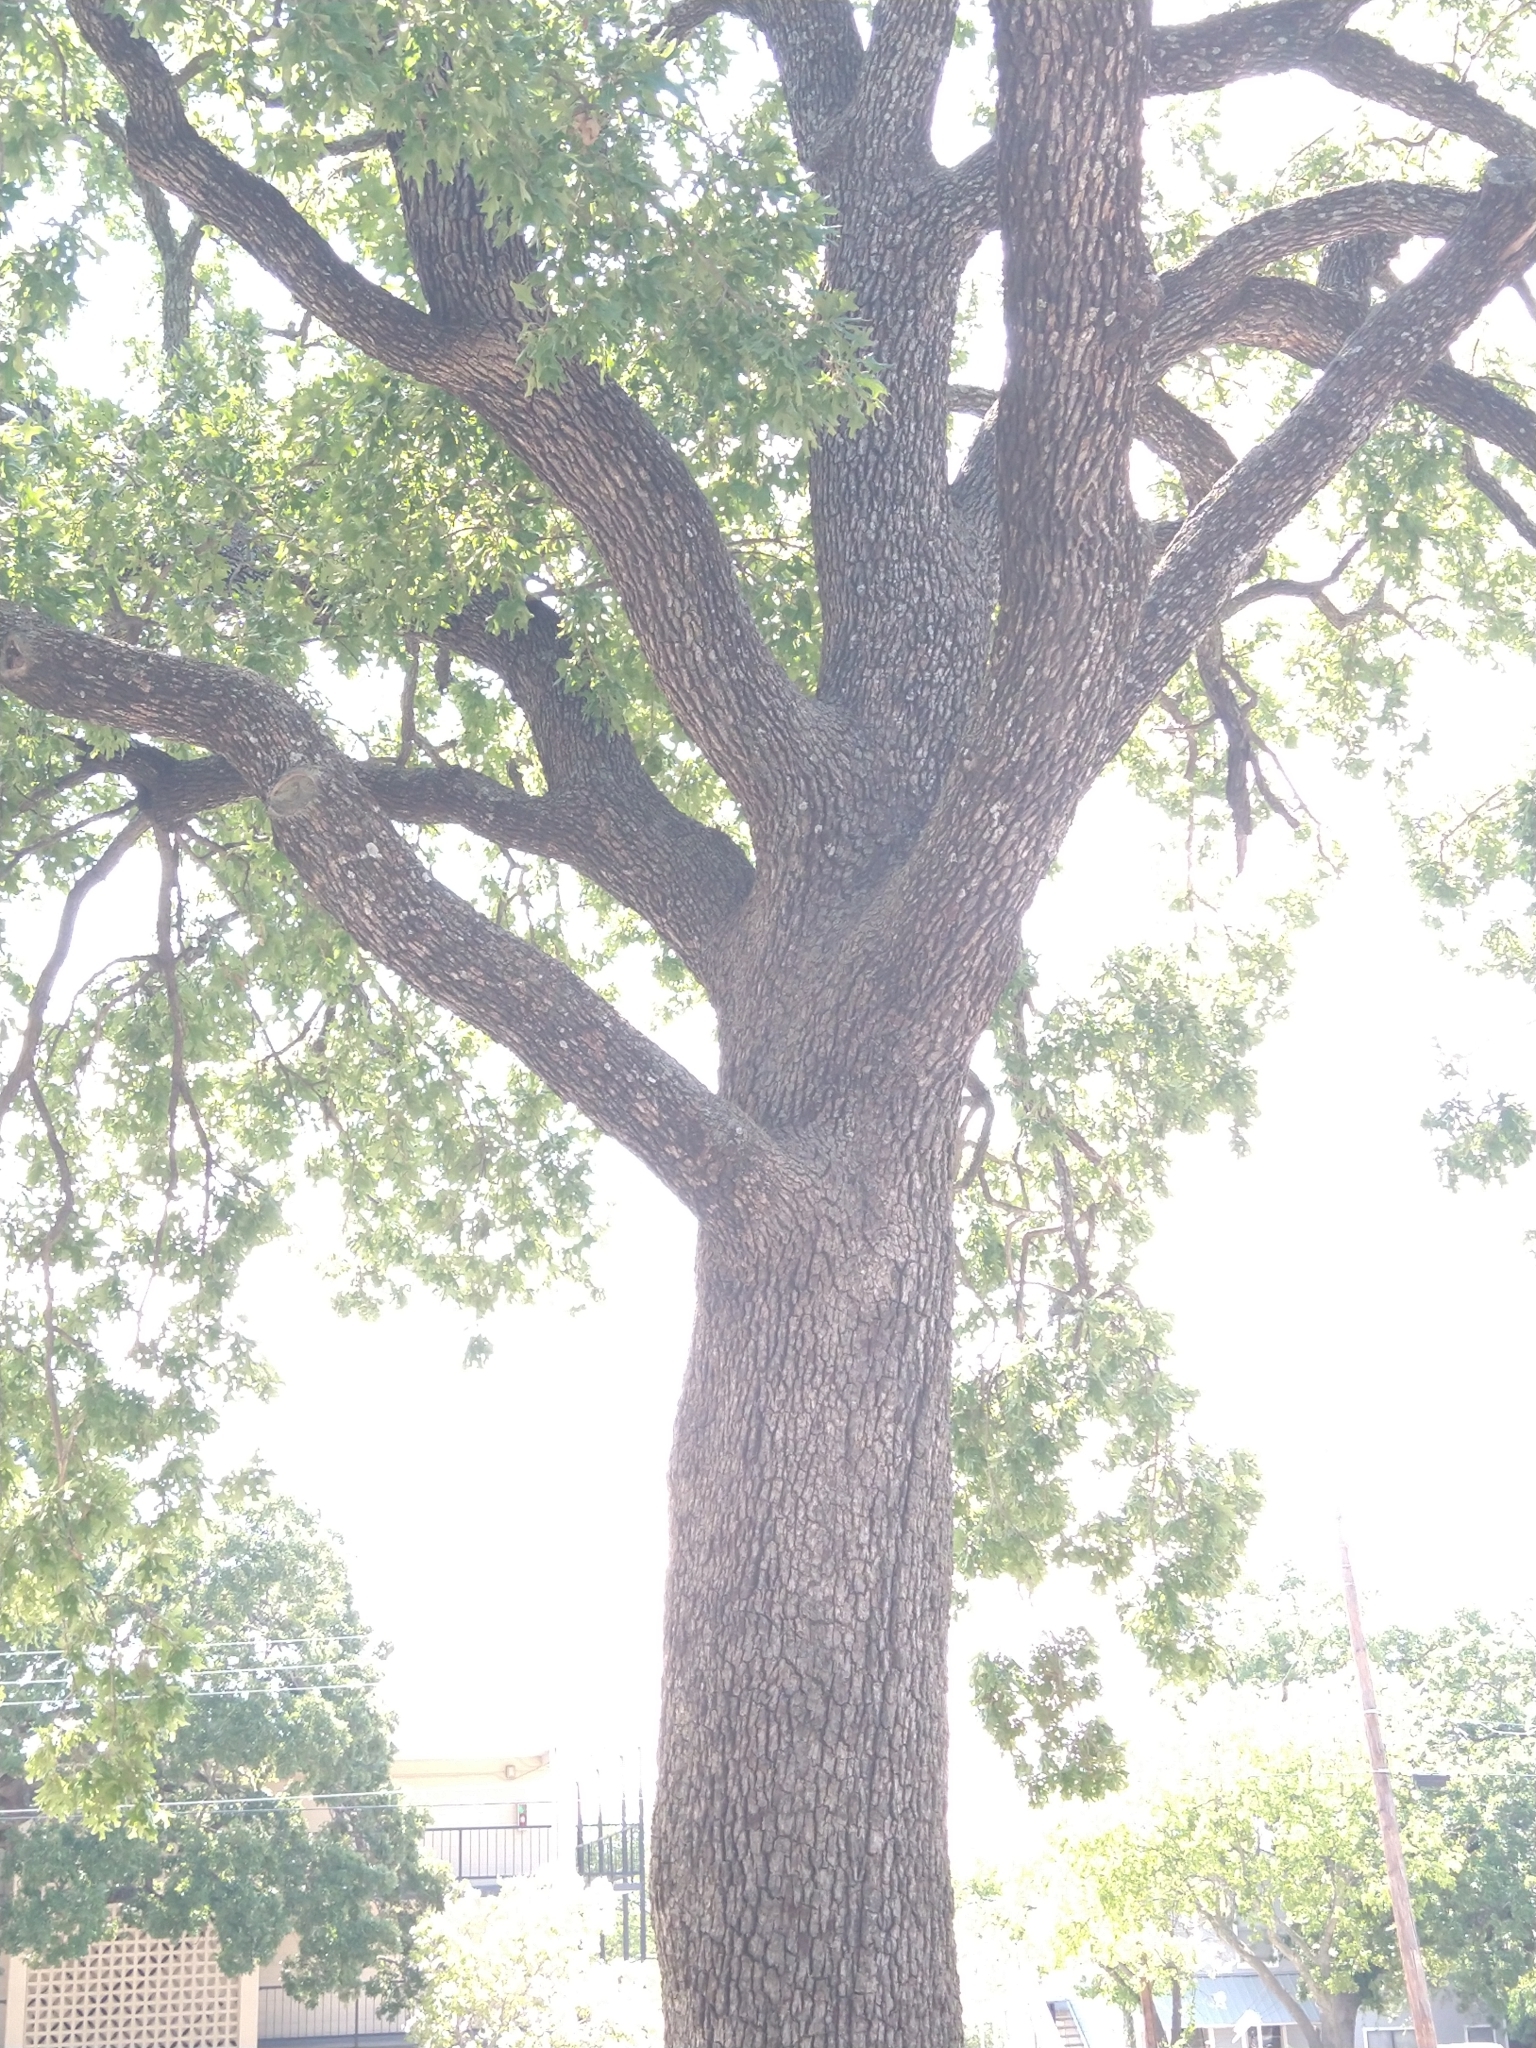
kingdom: Plantae
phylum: Tracheophyta
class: Magnoliopsida
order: Fagales
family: Fagaceae
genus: Quercus
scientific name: Quercus stellata
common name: Post oak
